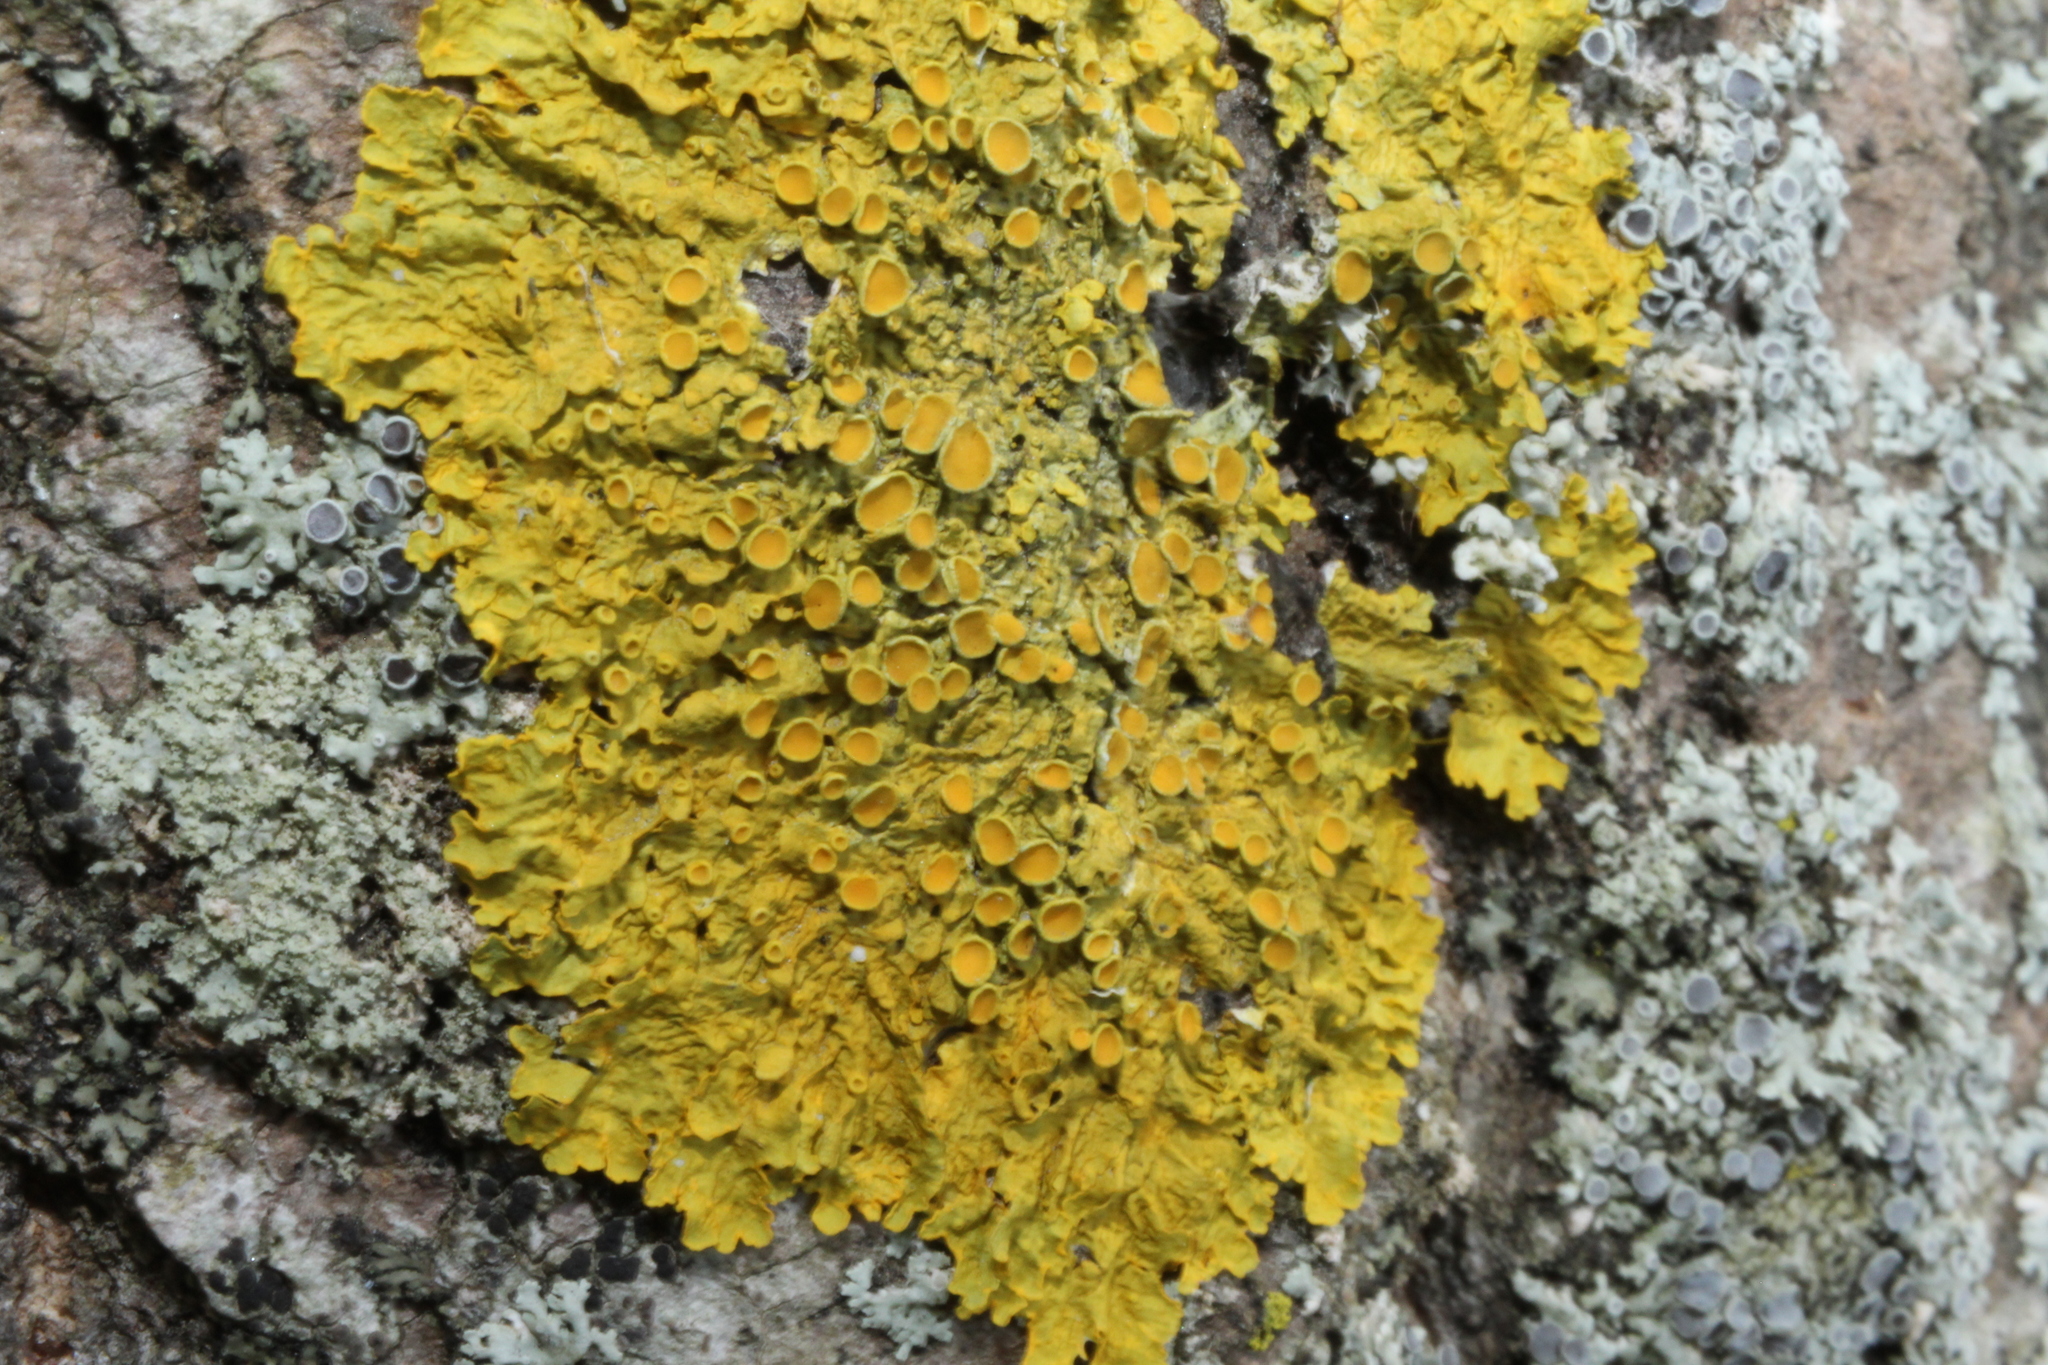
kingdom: Fungi
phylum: Ascomycota
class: Lecanoromycetes
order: Teloschistales
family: Teloschistaceae
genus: Xanthoria
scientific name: Xanthoria parietina
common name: Common orange lichen
